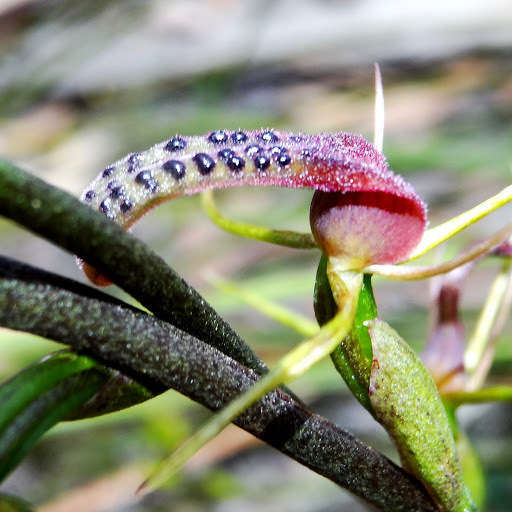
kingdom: Plantae
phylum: Tracheophyta
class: Liliopsida
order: Asparagales
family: Orchidaceae
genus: Cryptostylis
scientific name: Cryptostylis leptochila
